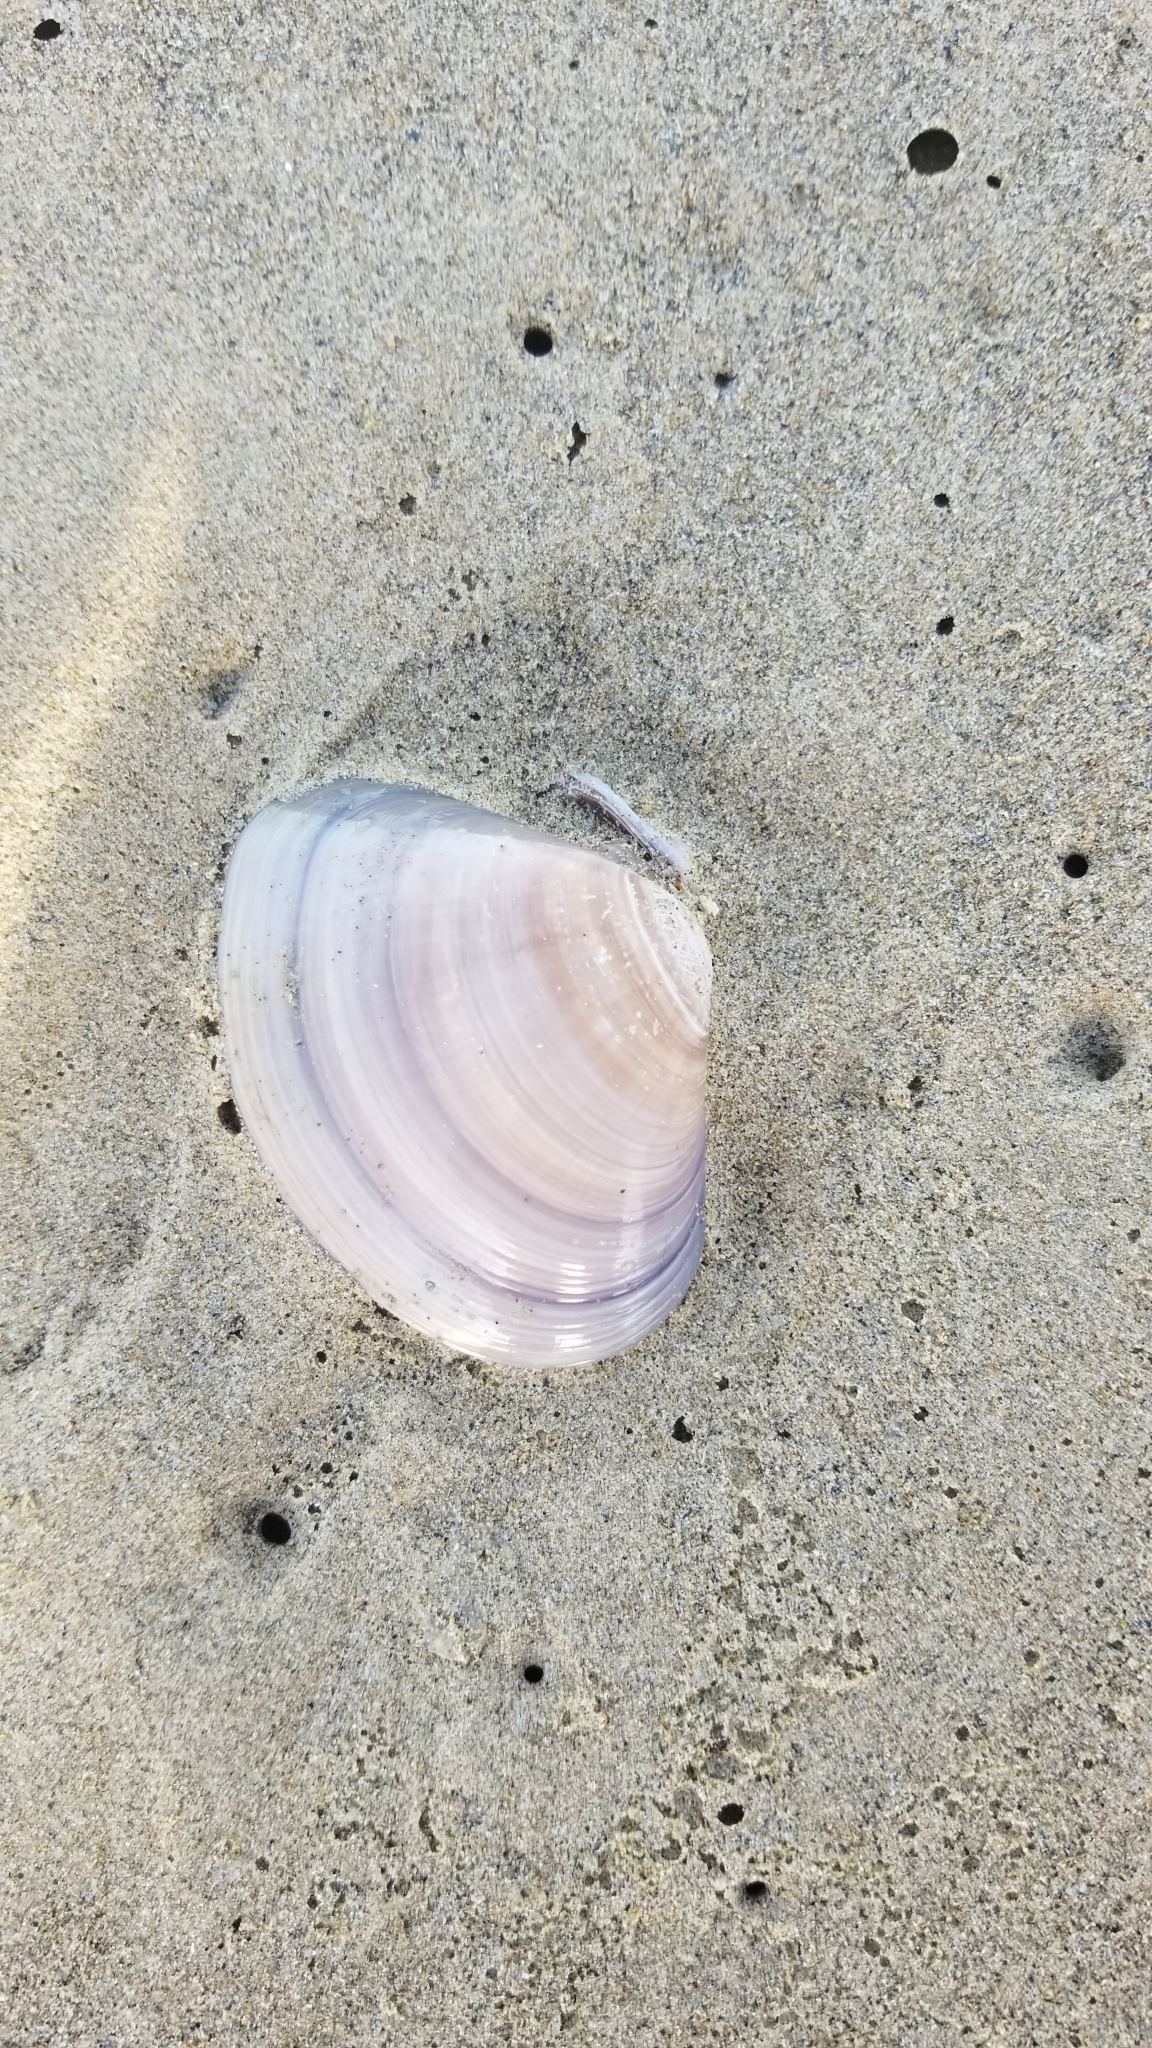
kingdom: Animalia
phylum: Mollusca
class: Bivalvia
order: Venerida
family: Veneridae
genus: Tivela
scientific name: Tivela stultorum
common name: Pismo clam
